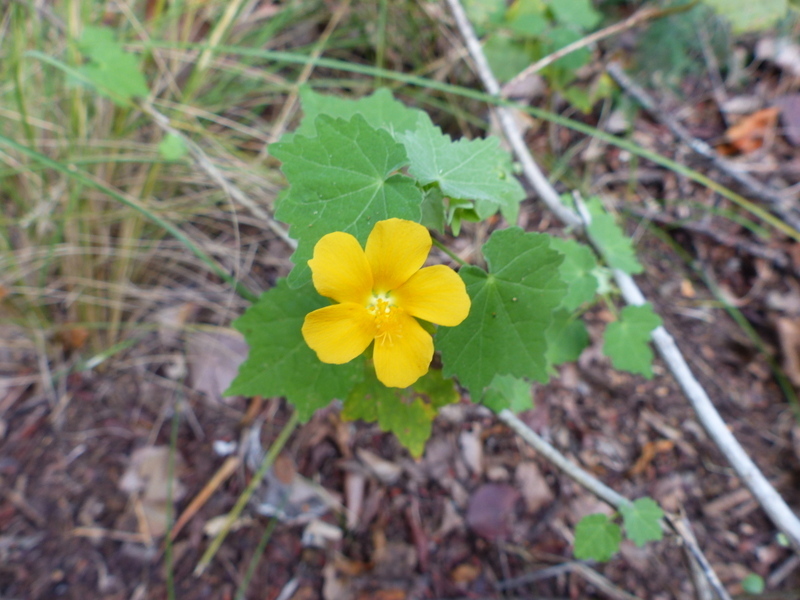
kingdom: Plantae
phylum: Tracheophyta
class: Magnoliopsida
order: Malvales
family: Malvaceae
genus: Pavonia
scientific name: Pavonia burchellii
